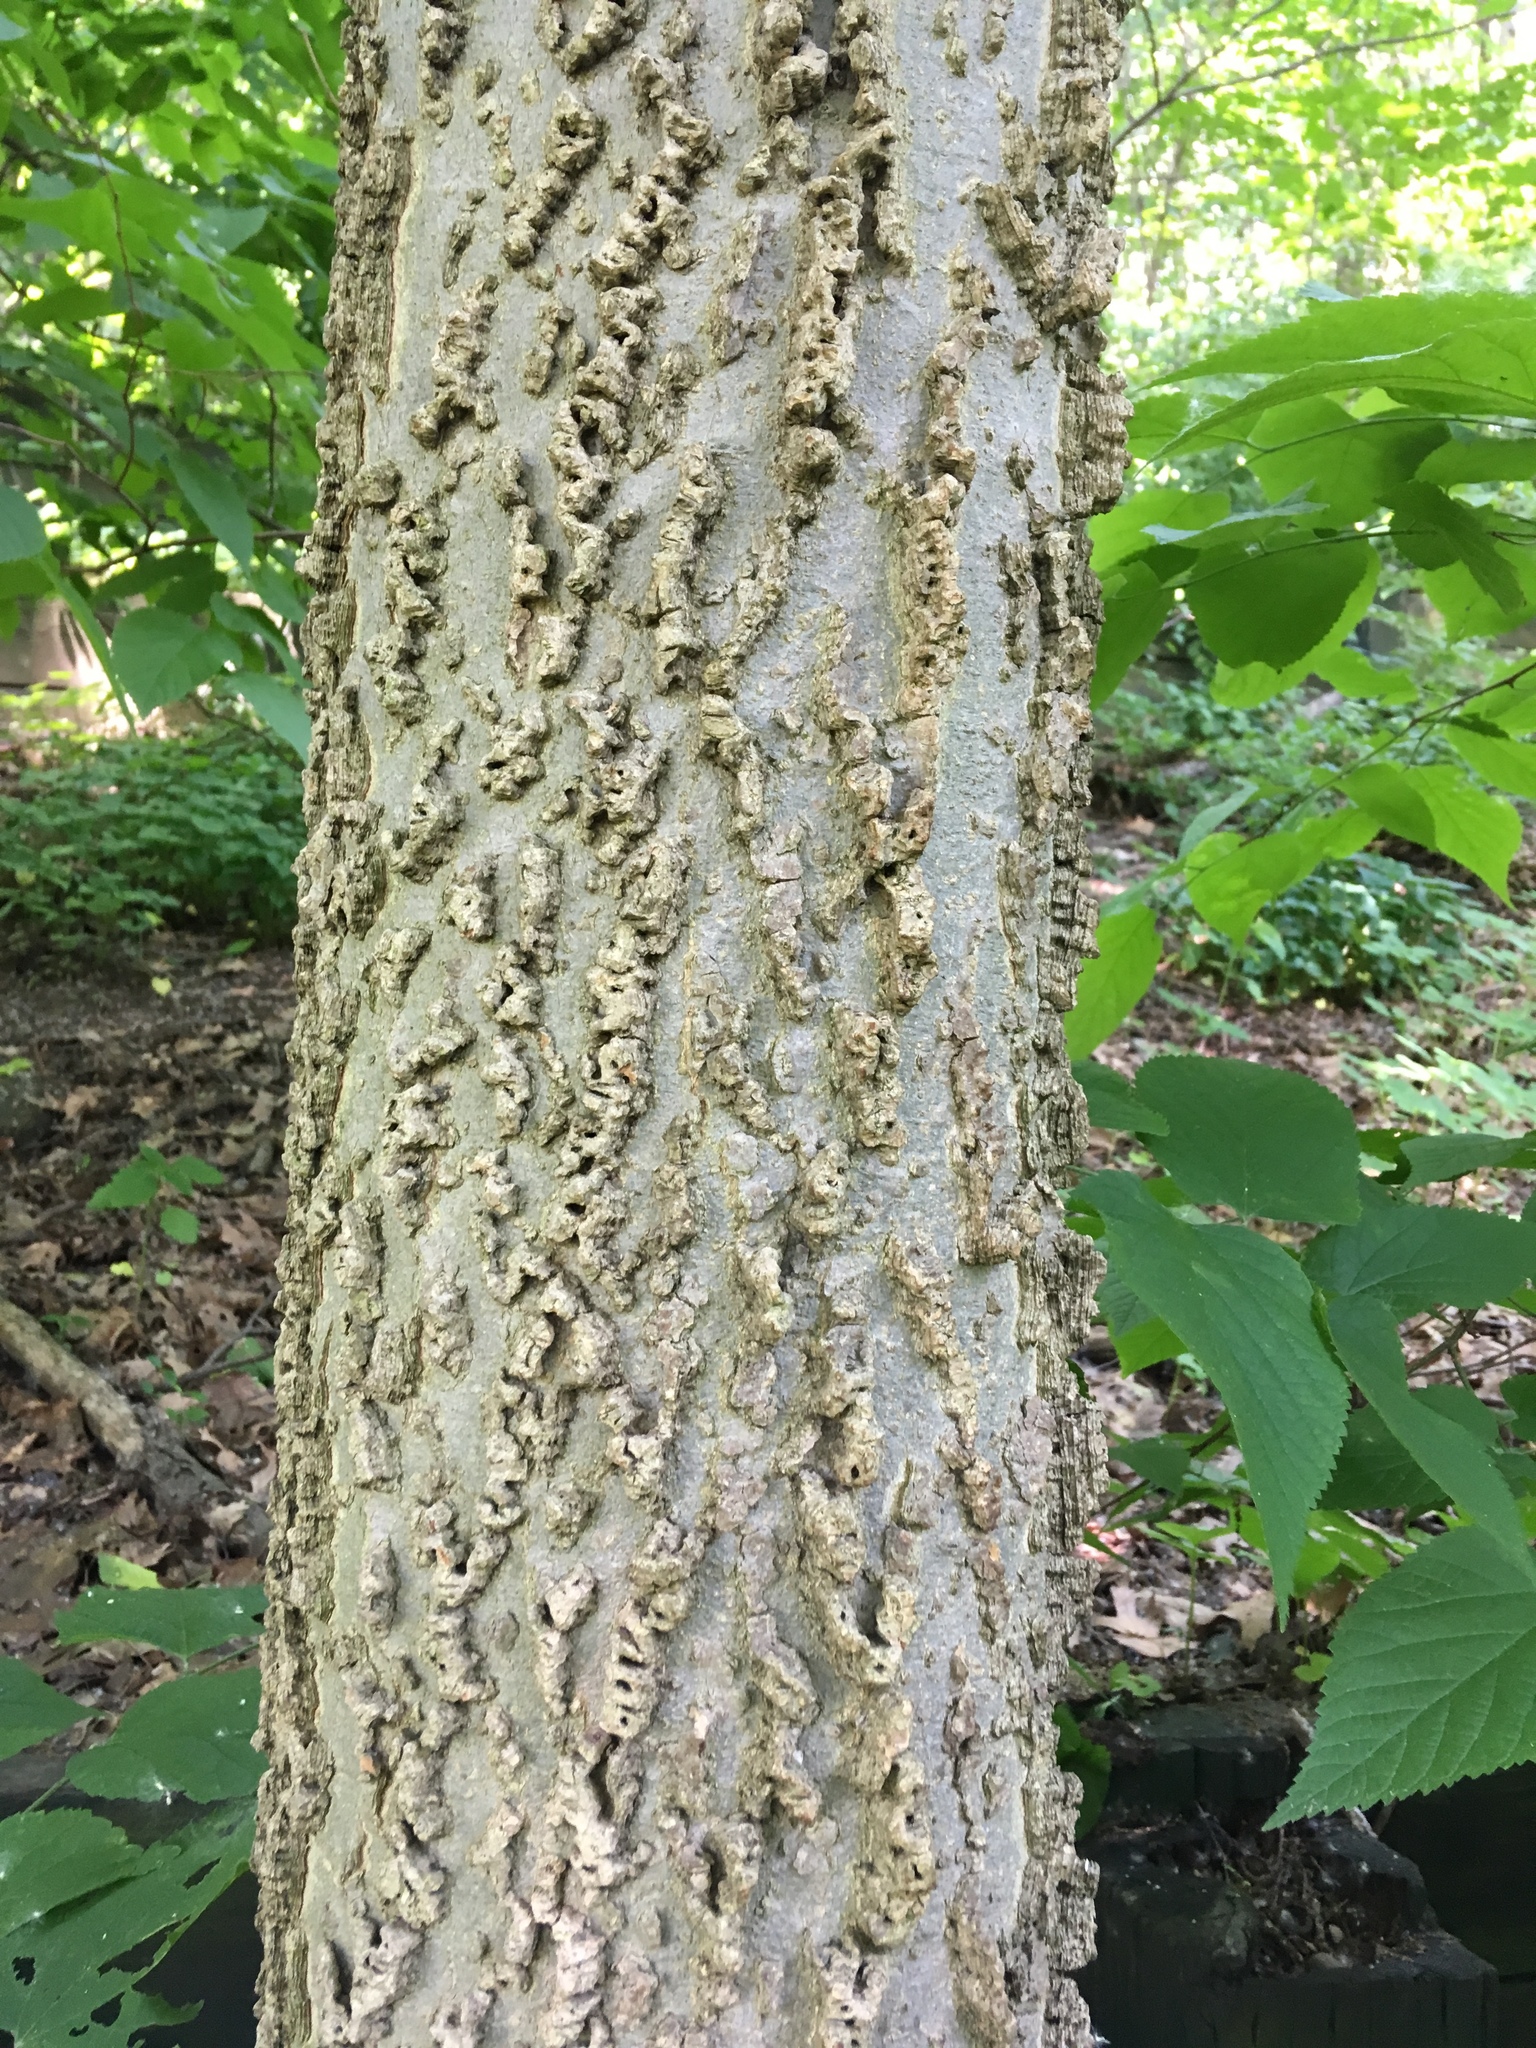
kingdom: Plantae
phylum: Tracheophyta
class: Magnoliopsida
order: Rosales
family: Cannabaceae
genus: Celtis
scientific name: Celtis occidentalis
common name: Common hackberry
